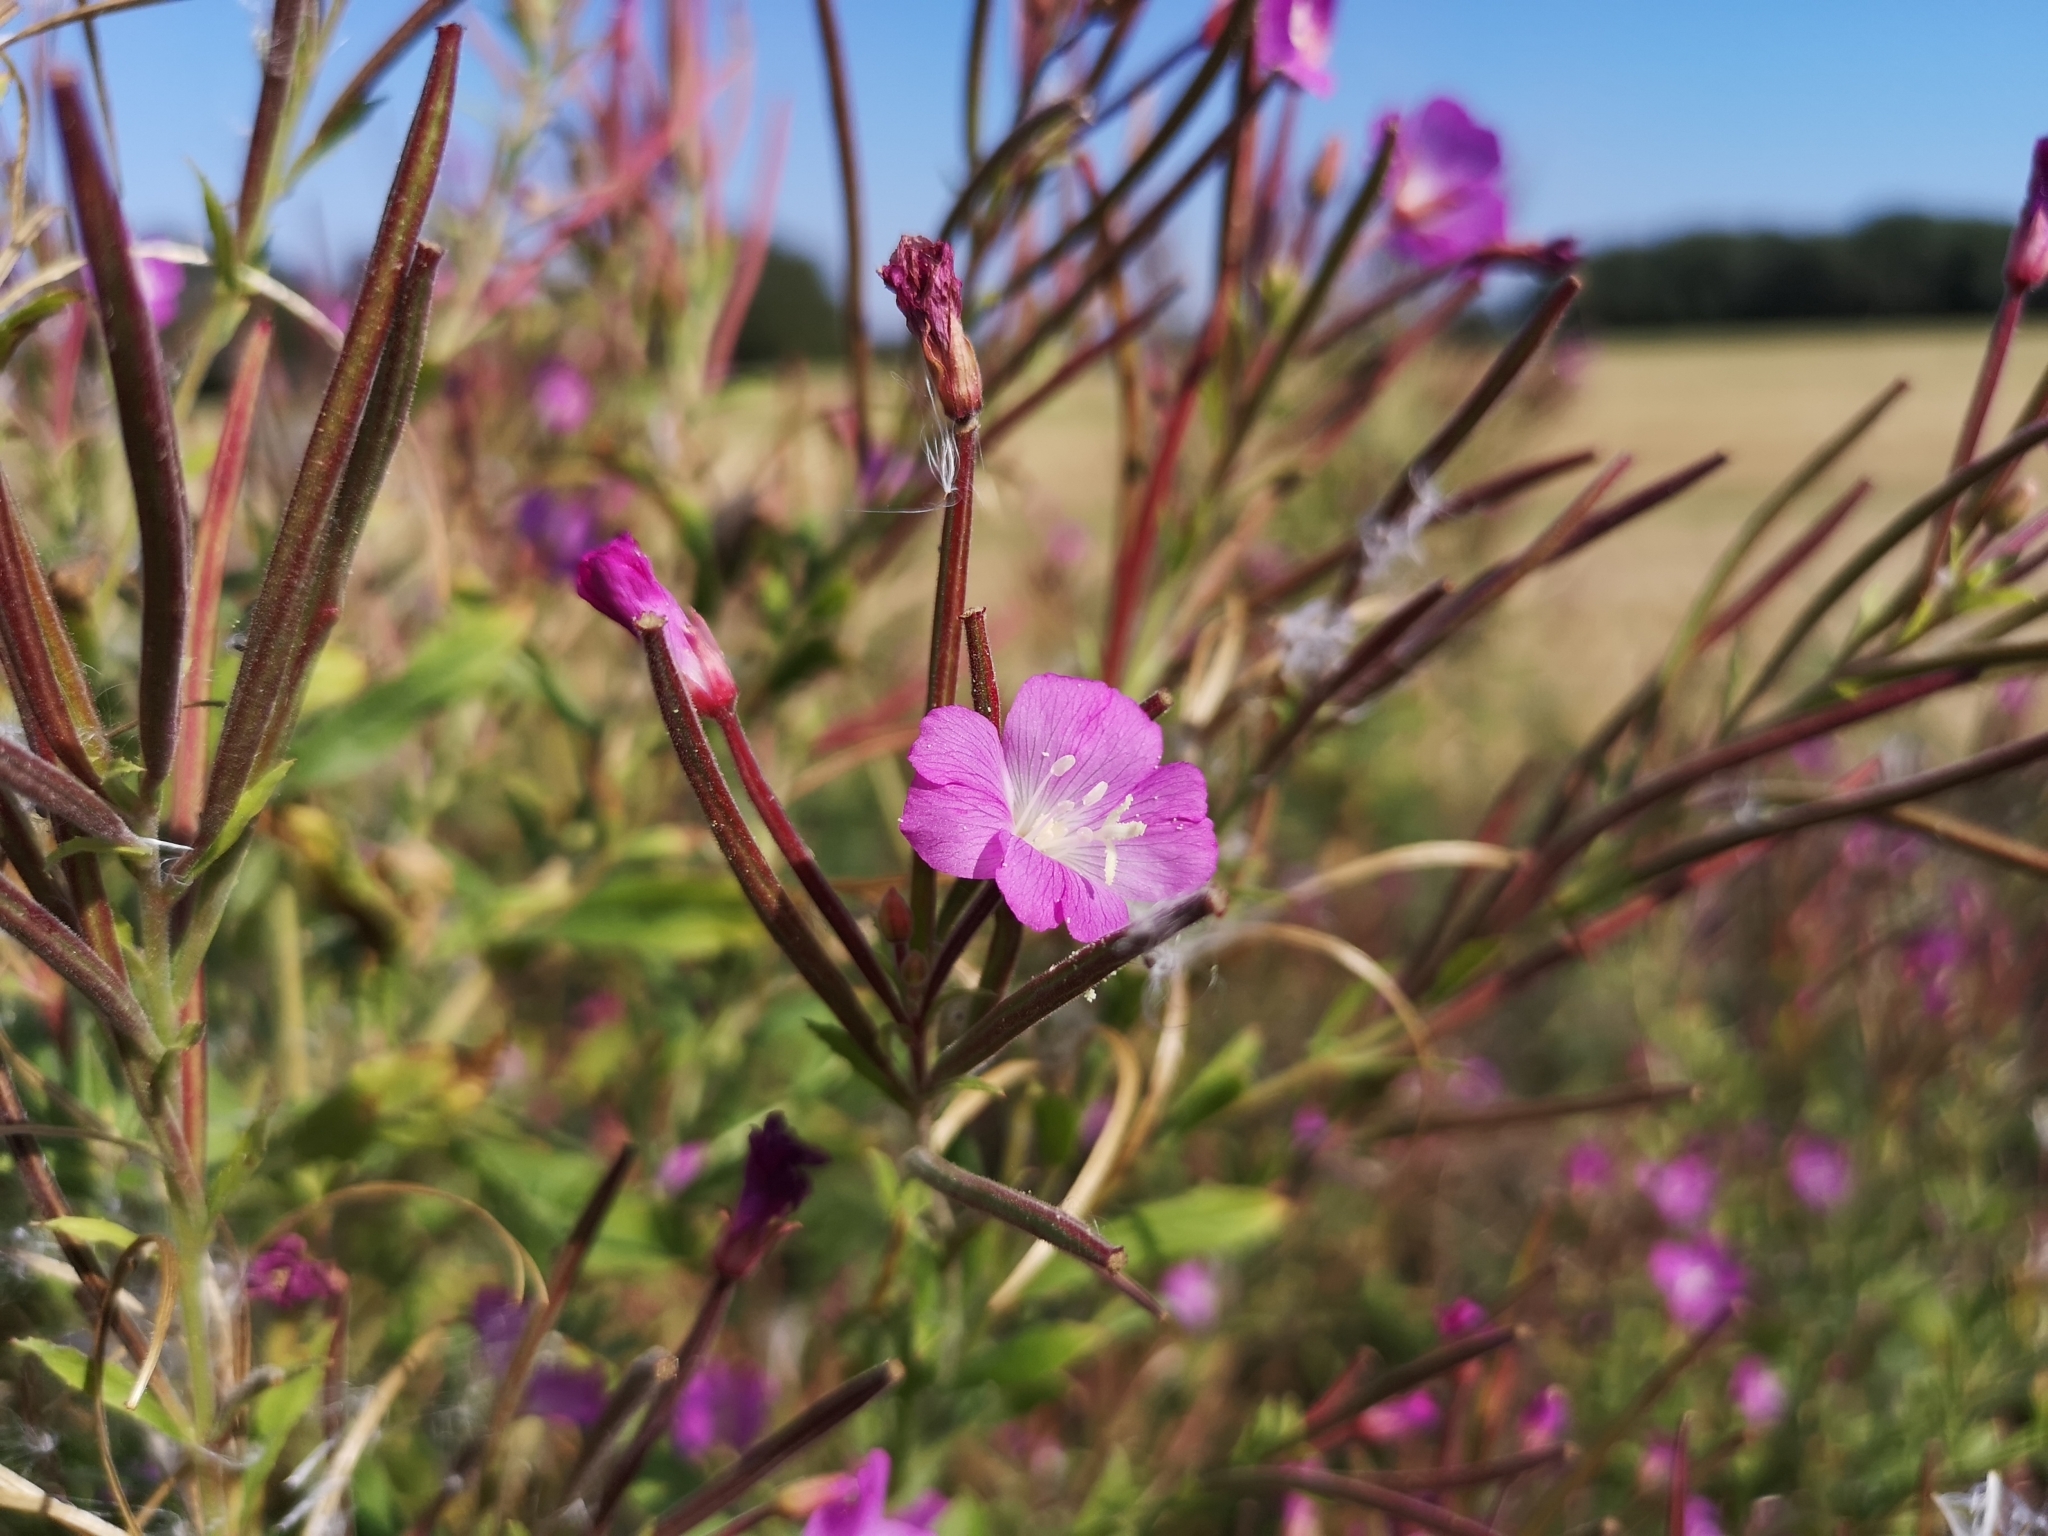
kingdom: Plantae
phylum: Tracheophyta
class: Magnoliopsida
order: Myrtales
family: Onagraceae
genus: Epilobium
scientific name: Epilobium hirsutum
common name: Great willowherb
